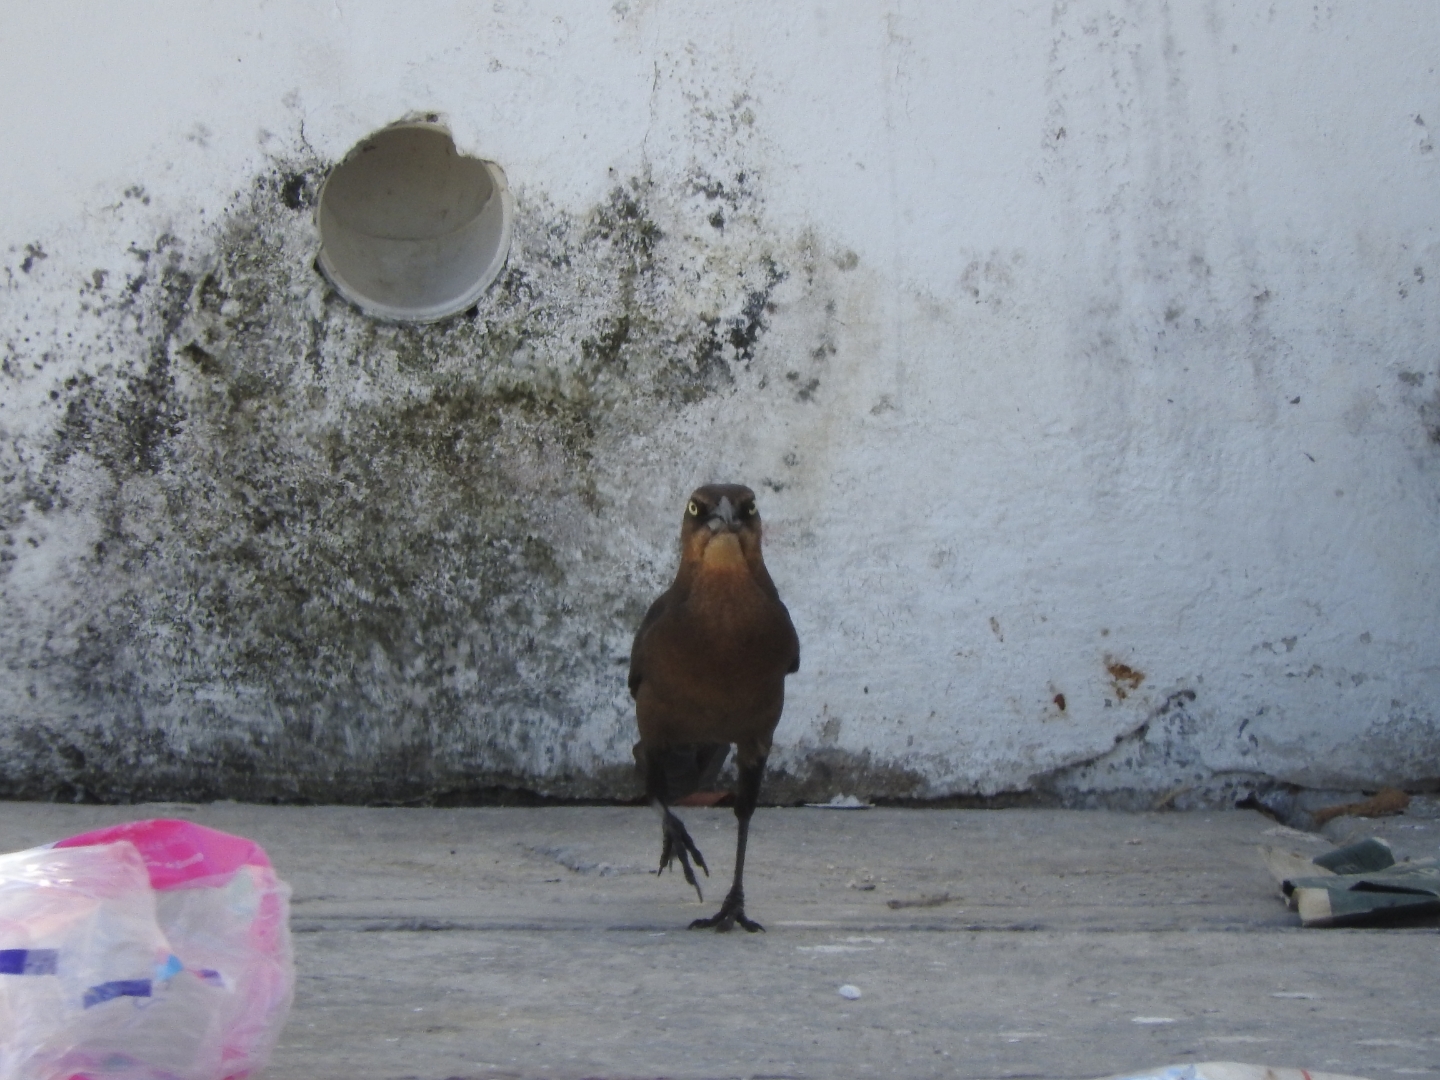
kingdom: Animalia
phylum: Chordata
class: Aves
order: Passeriformes
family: Icteridae
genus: Quiscalus
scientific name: Quiscalus mexicanus
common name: Great-tailed grackle
